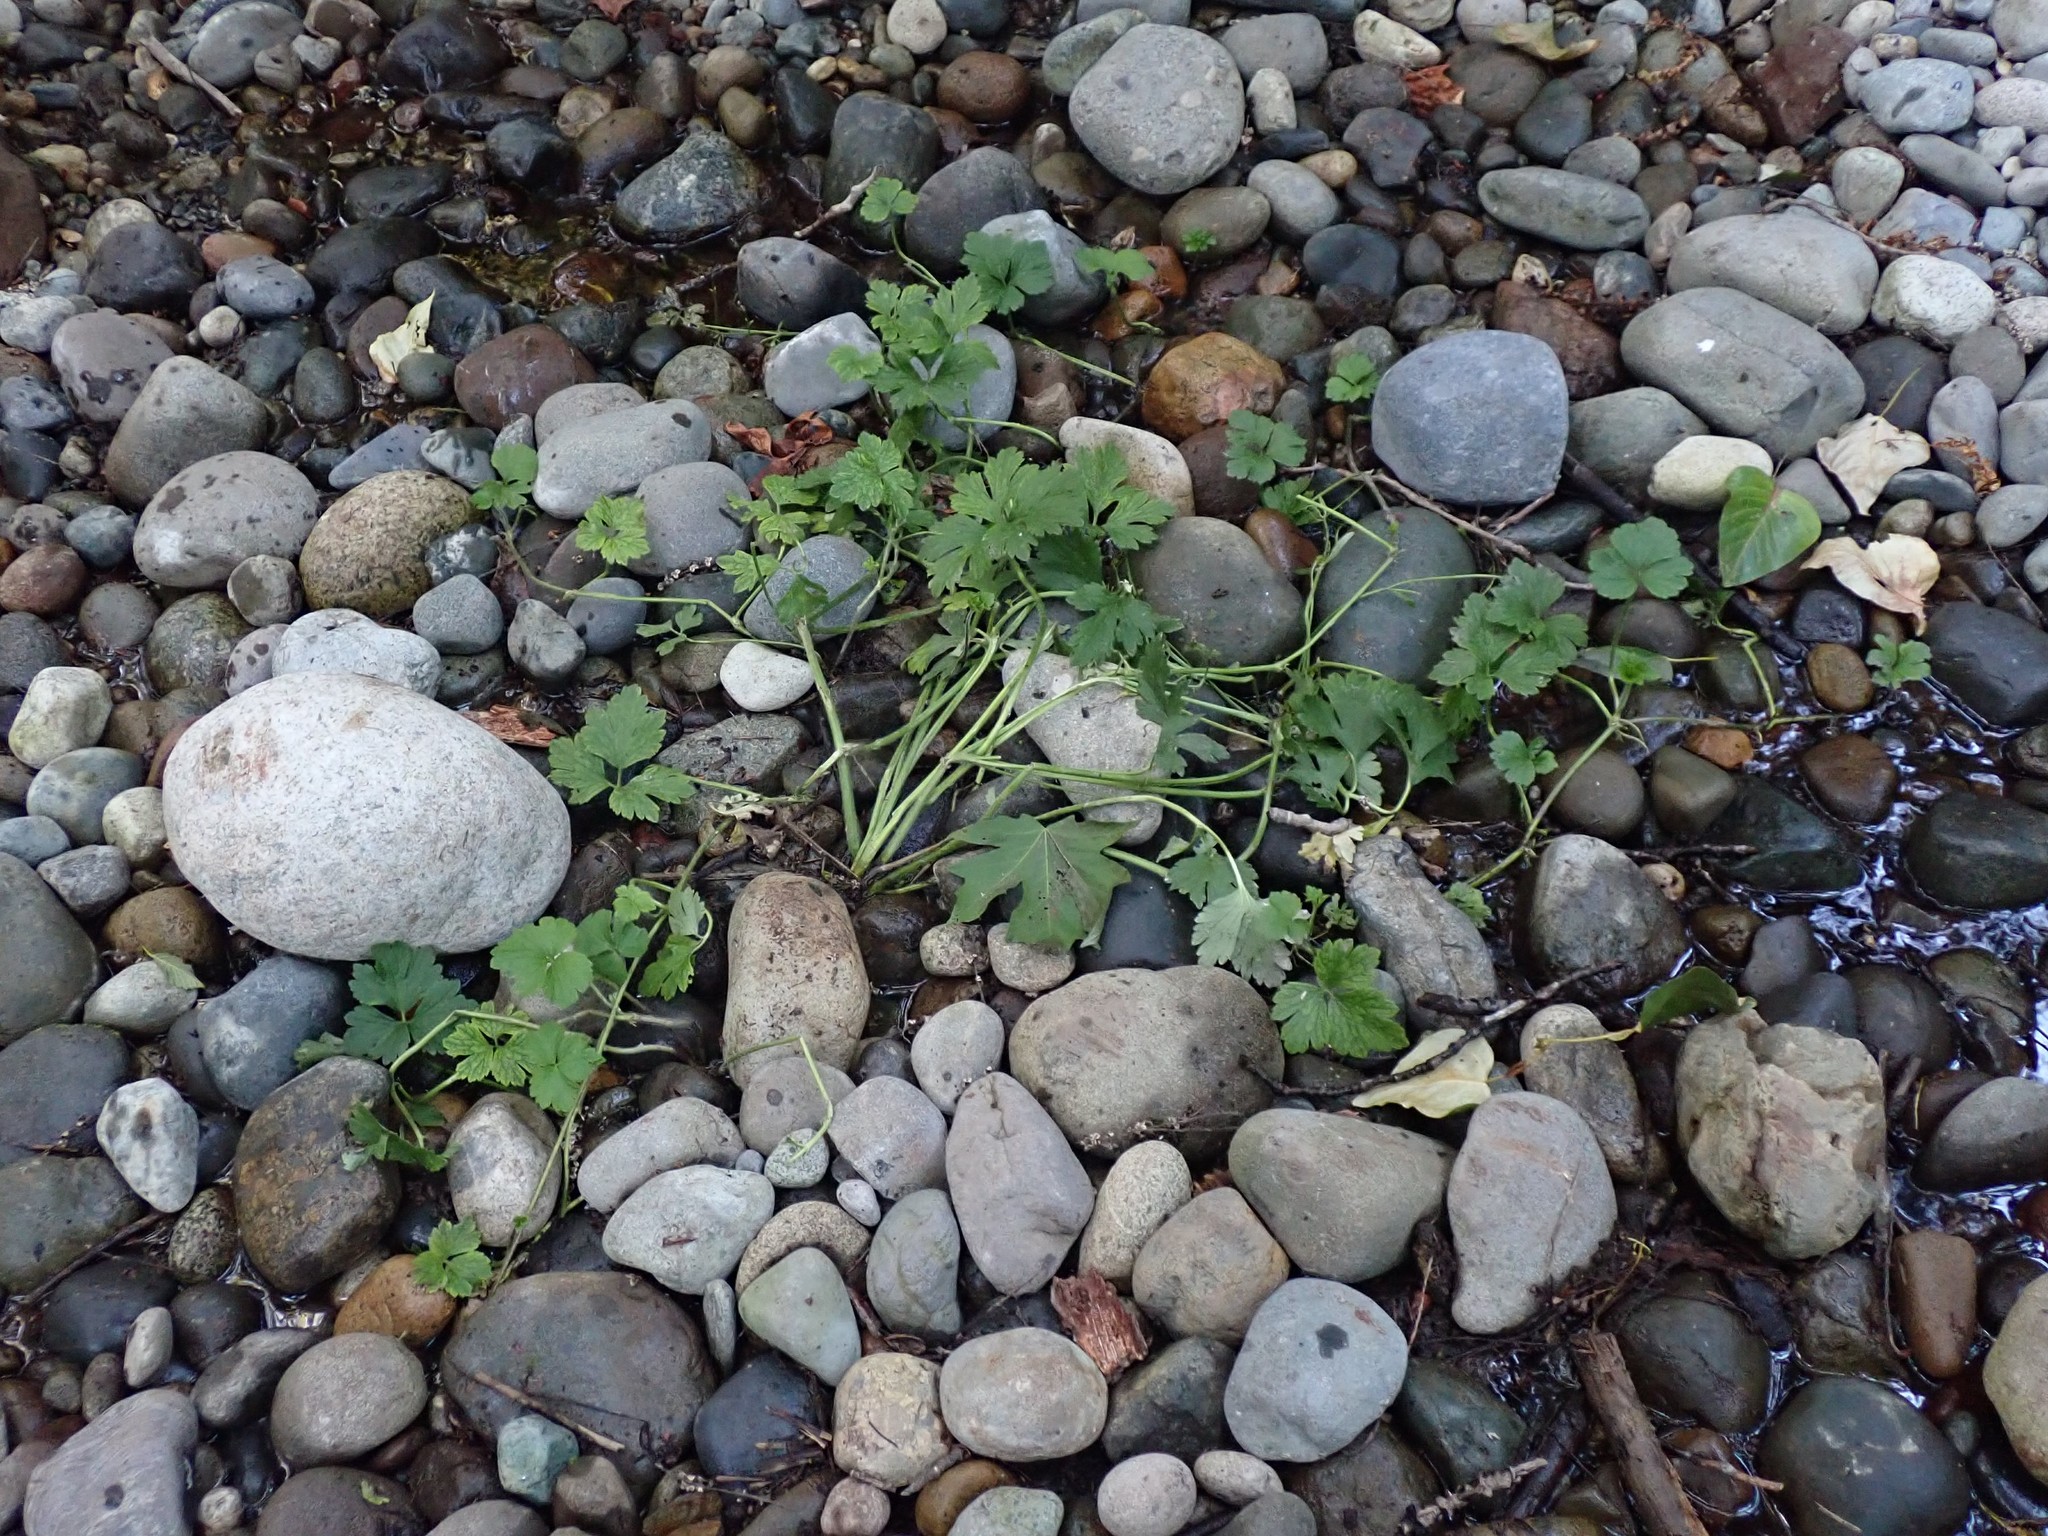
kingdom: Plantae
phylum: Tracheophyta
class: Magnoliopsida
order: Ranunculales
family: Ranunculaceae
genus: Ranunculus
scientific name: Ranunculus repens
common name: Creeping buttercup
